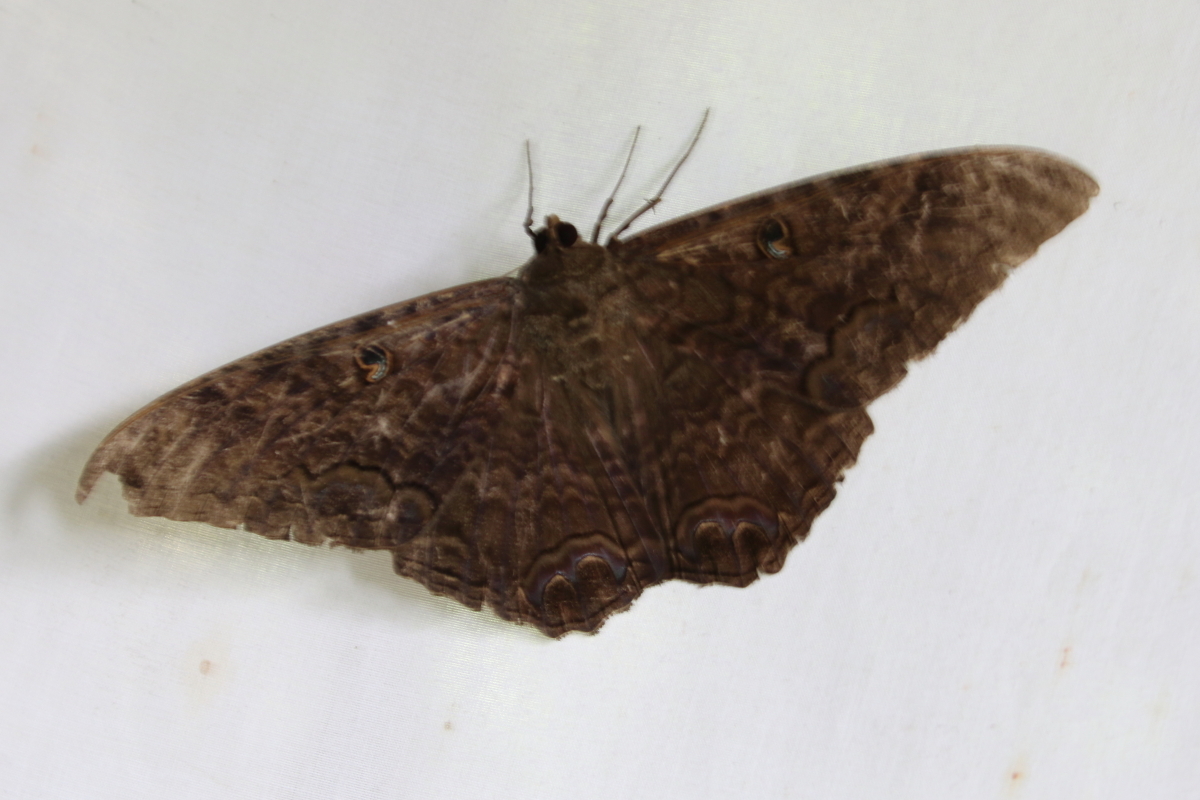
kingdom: Animalia
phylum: Arthropoda
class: Insecta
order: Lepidoptera
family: Erebidae
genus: Ascalapha
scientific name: Ascalapha odorata
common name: Black witch
